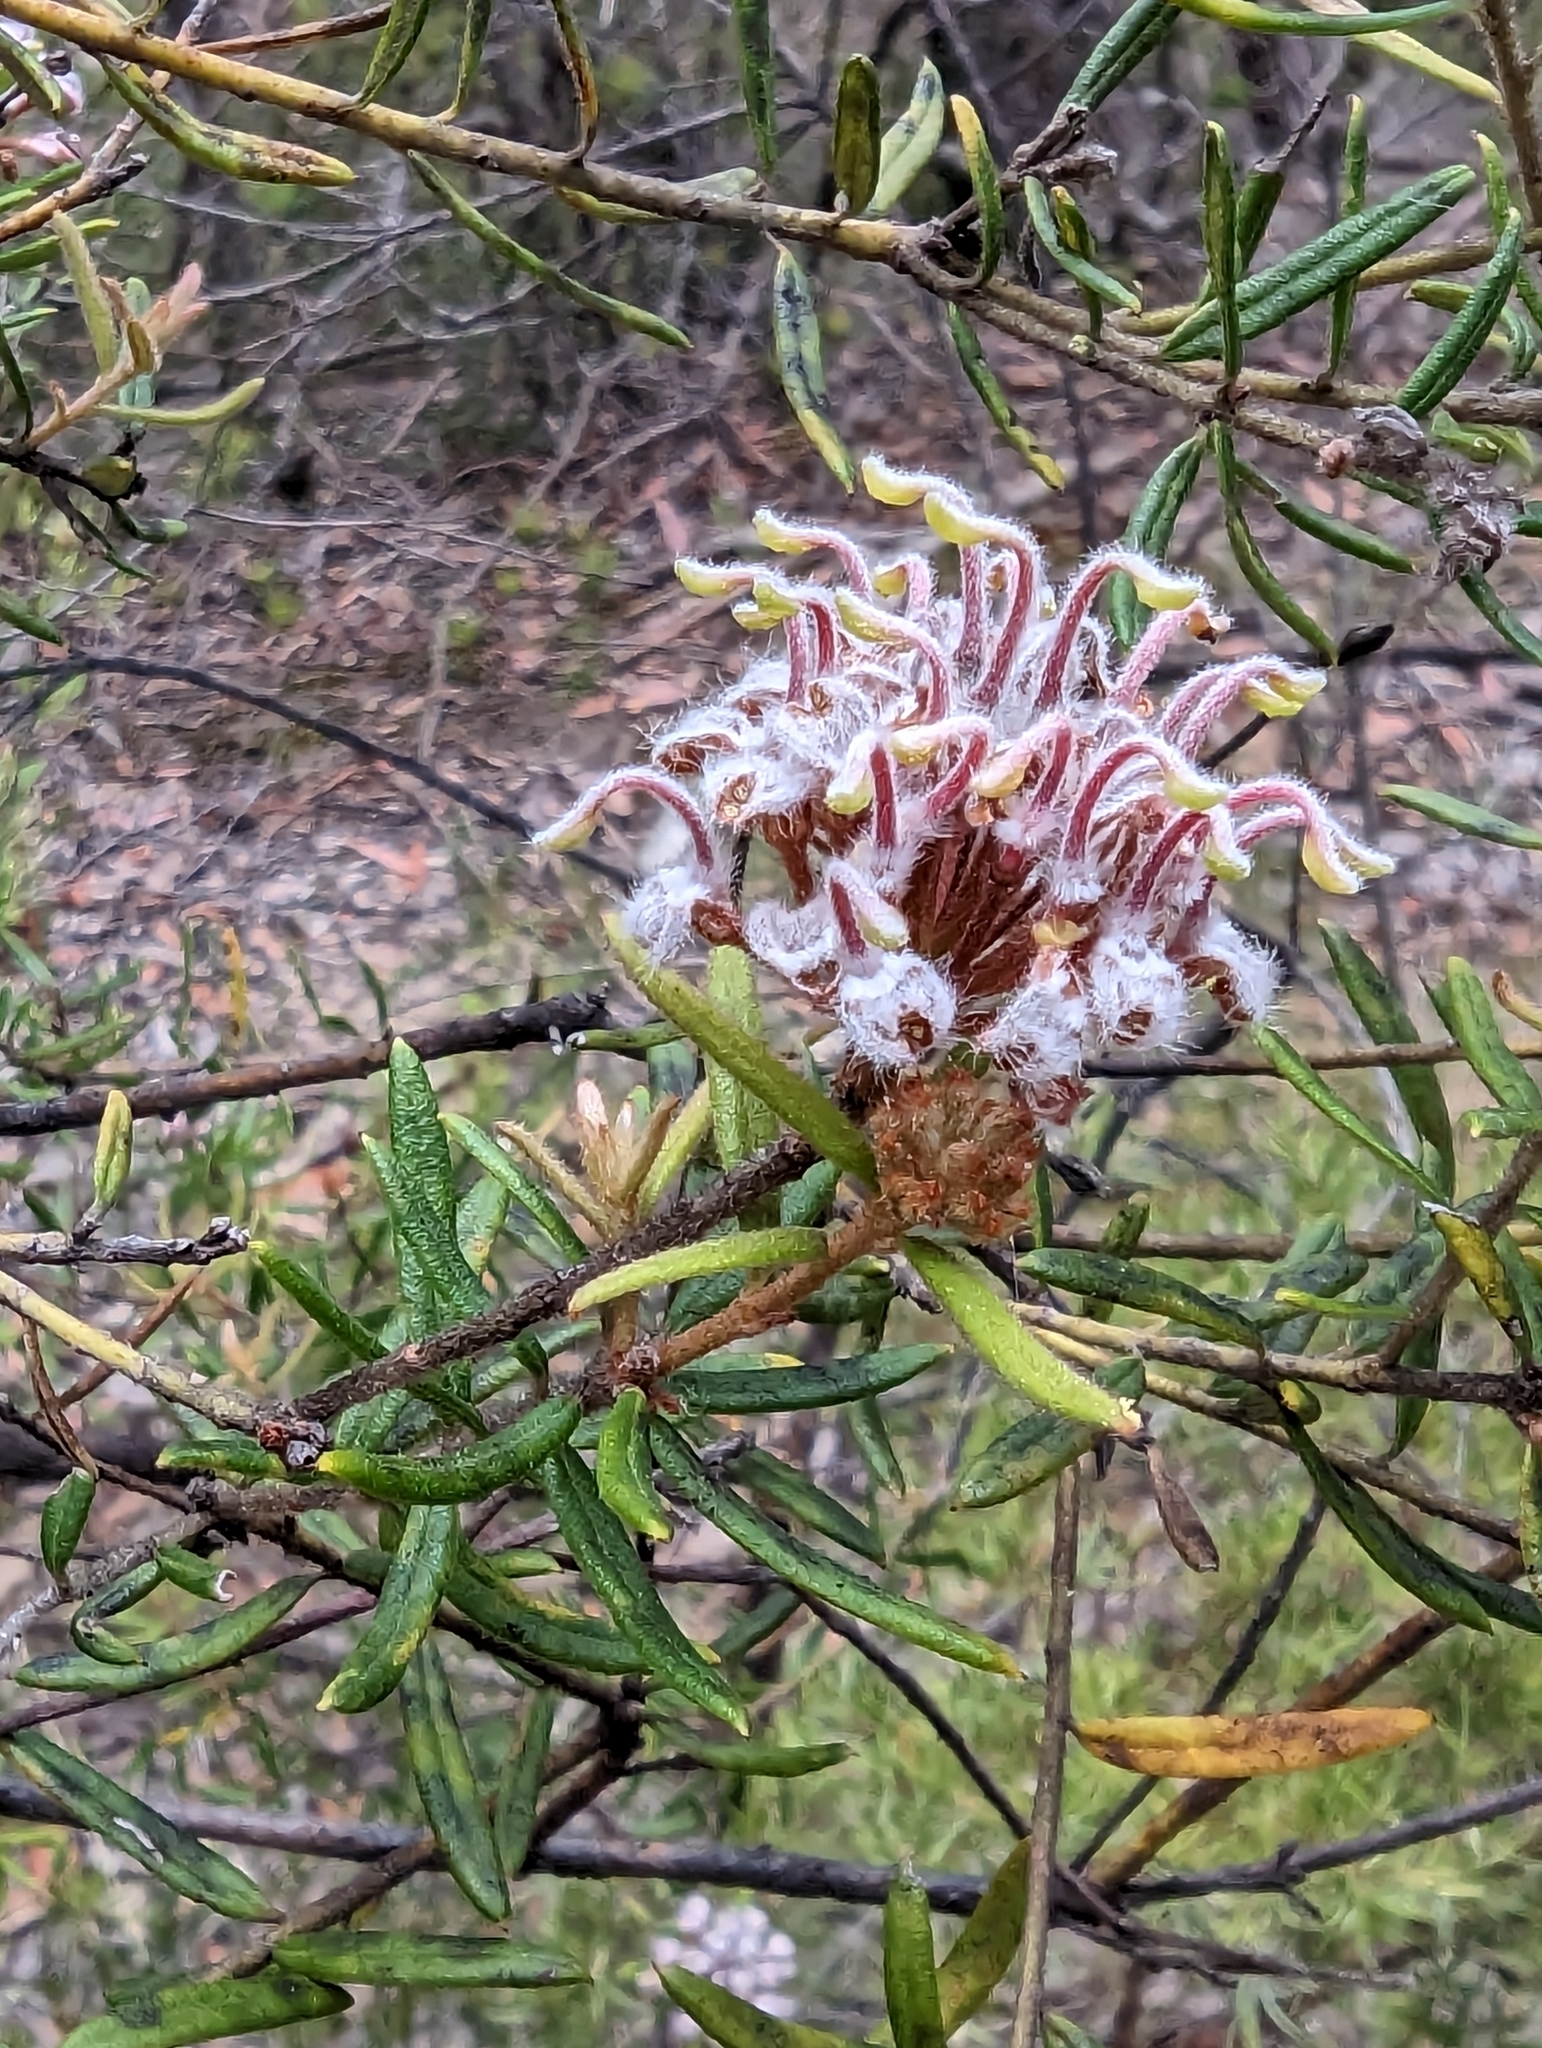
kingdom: Plantae
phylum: Tracheophyta
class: Magnoliopsida
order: Proteales
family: Proteaceae
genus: Grevillea
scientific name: Grevillea phylicoides
